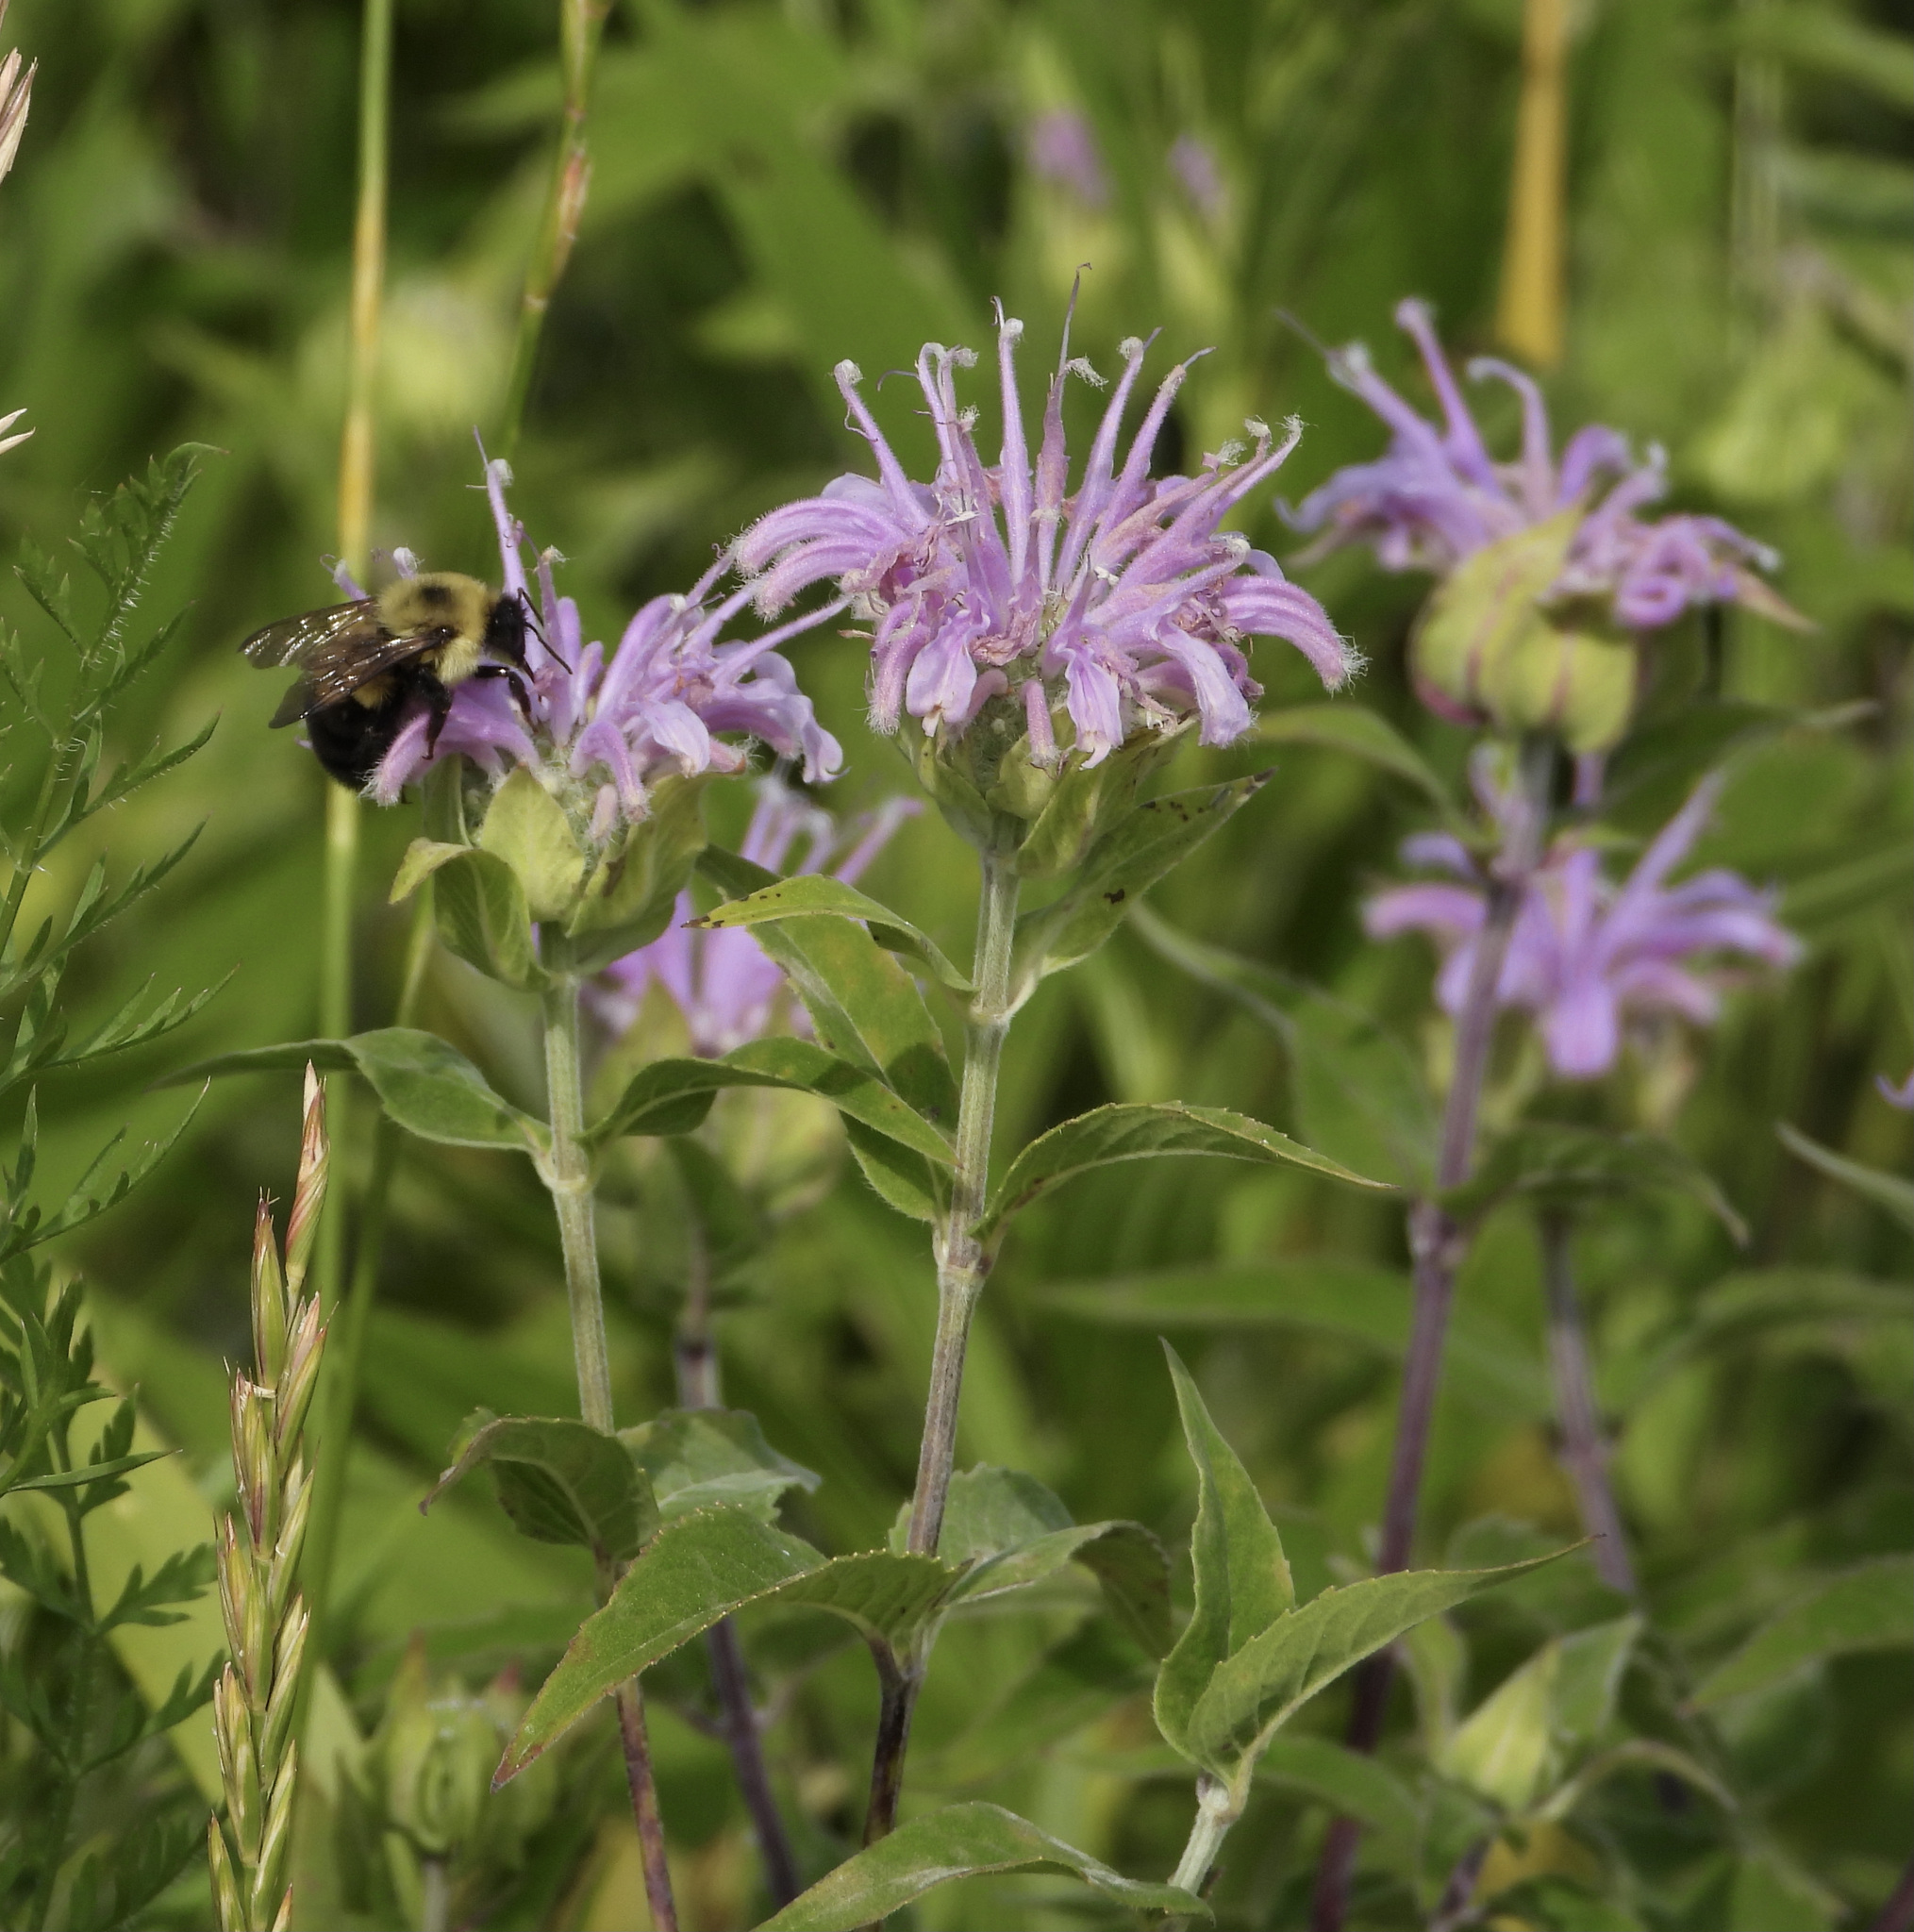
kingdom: Plantae
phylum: Tracheophyta
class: Magnoliopsida
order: Lamiales
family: Lamiaceae
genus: Monarda
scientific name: Monarda fistulosa
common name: Purple beebalm
